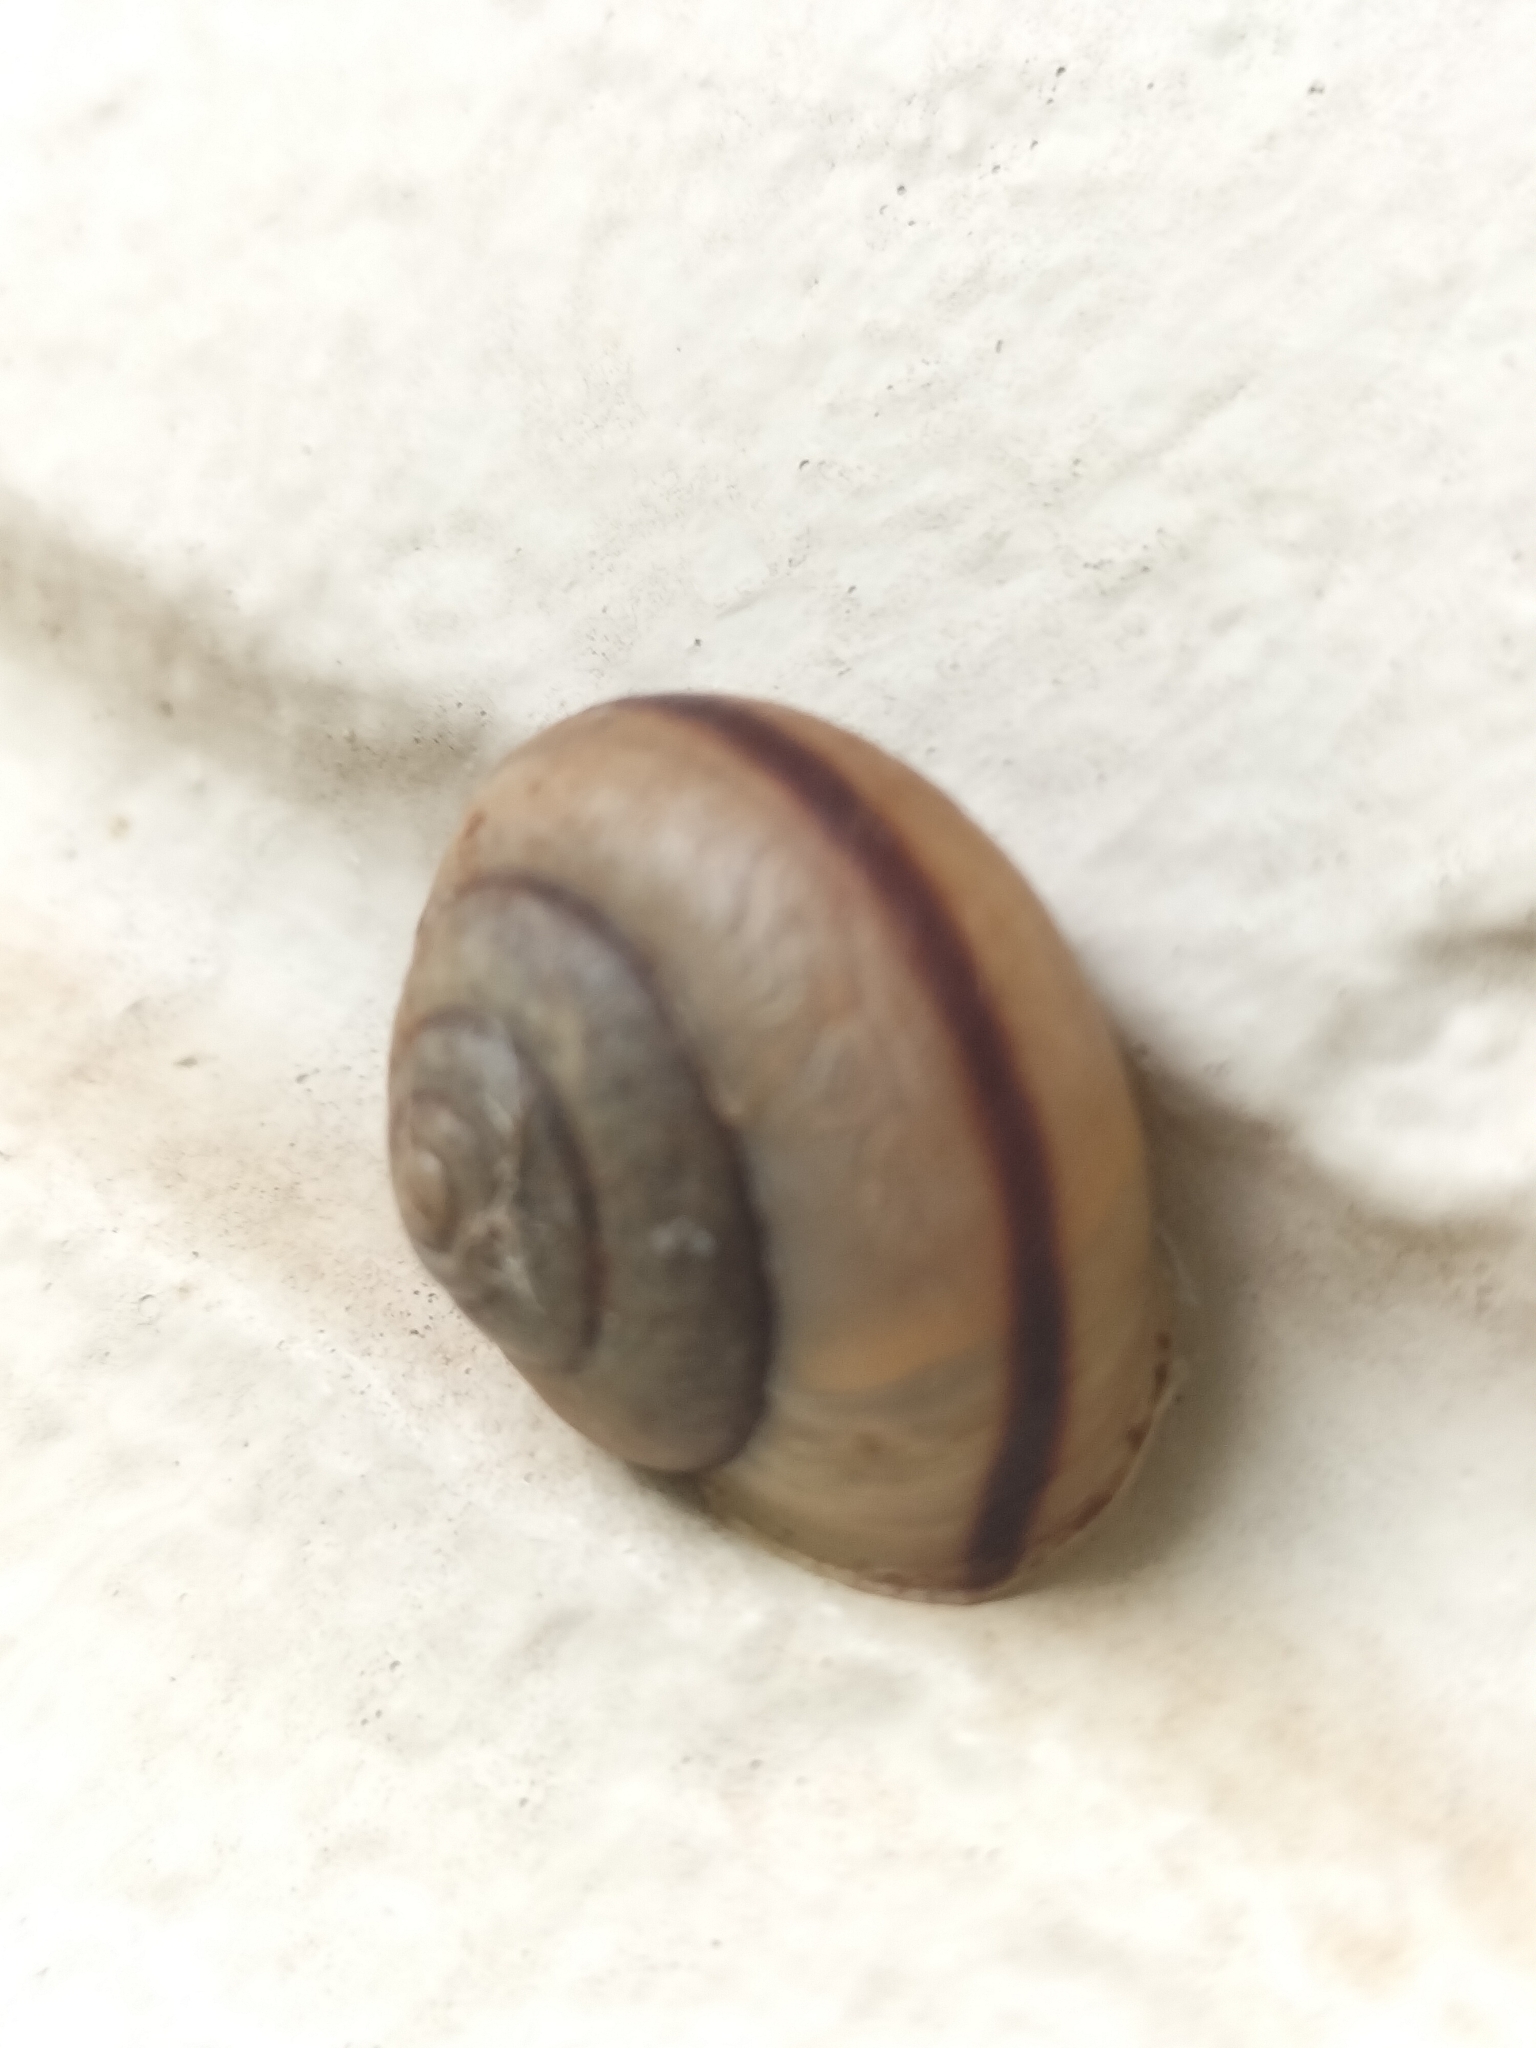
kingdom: Animalia
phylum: Mollusca
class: Gastropoda
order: Stylommatophora
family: Camaenidae
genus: Bradybaena
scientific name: Bradybaena similaris
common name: Asian trampsnail
